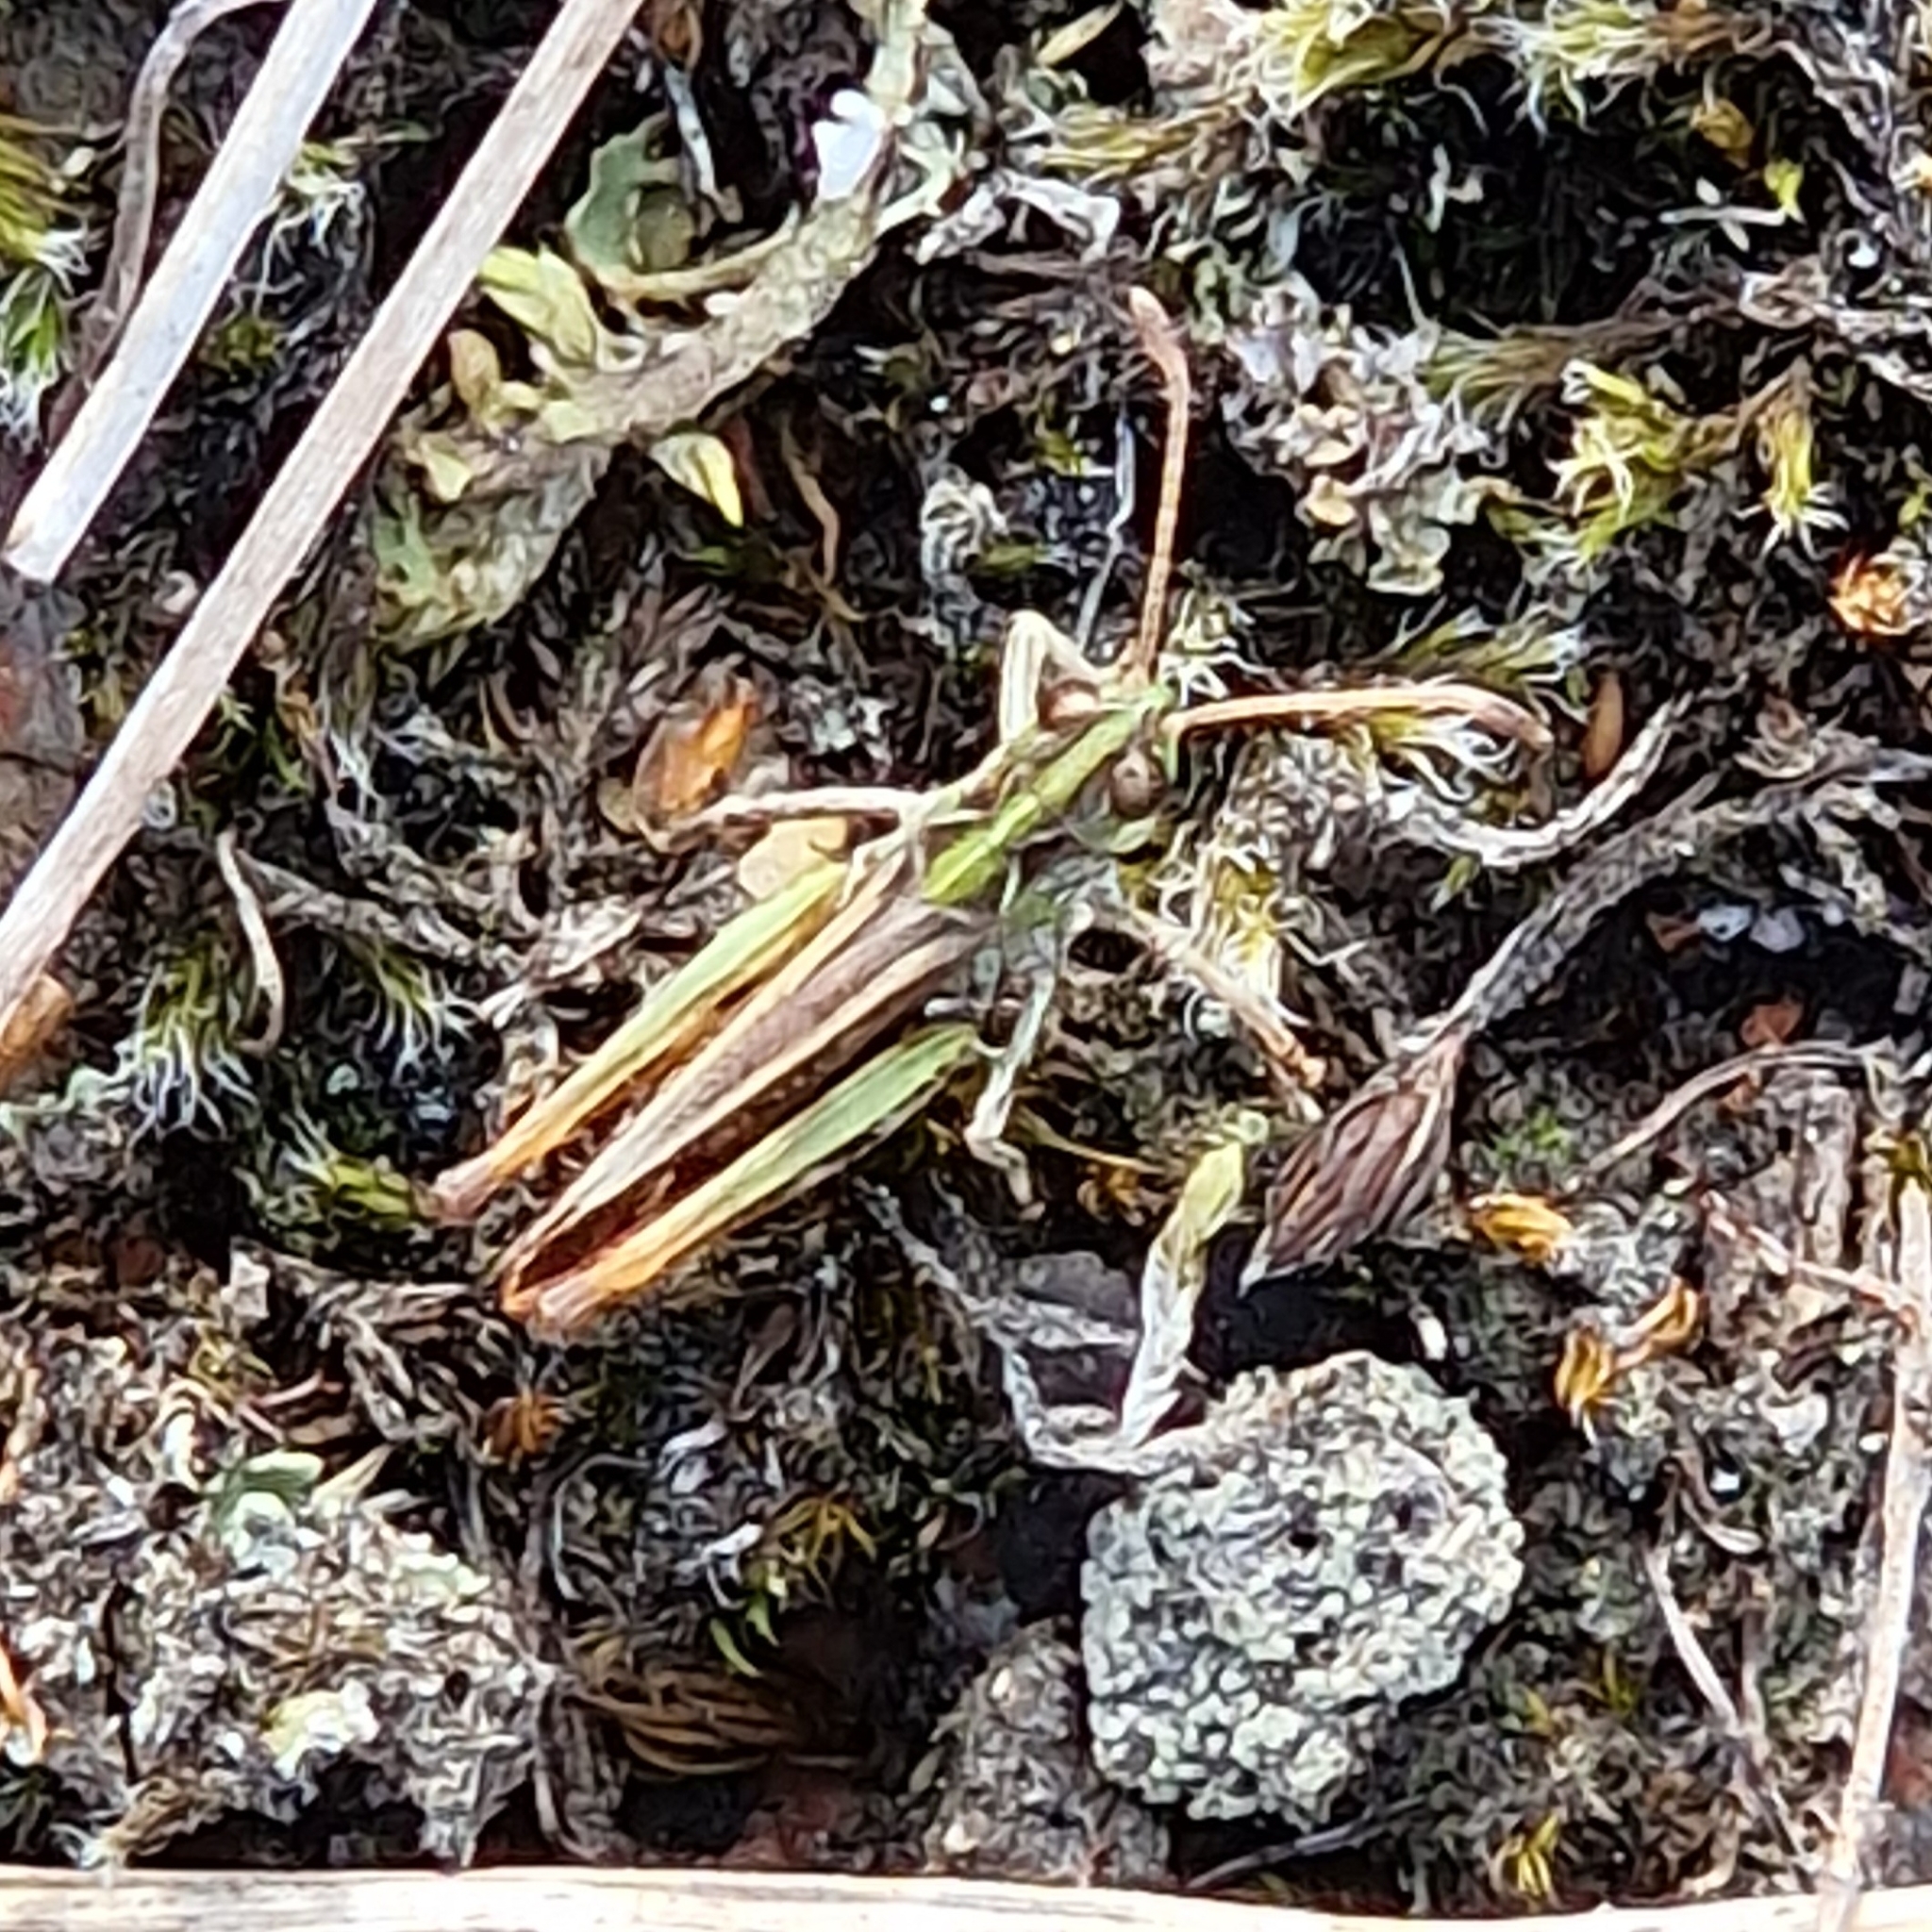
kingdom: Animalia
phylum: Arthropoda
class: Insecta
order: Orthoptera
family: Acrididae
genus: Myrmeleotettix
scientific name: Myrmeleotettix maculatus
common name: Mottled grasshopper
